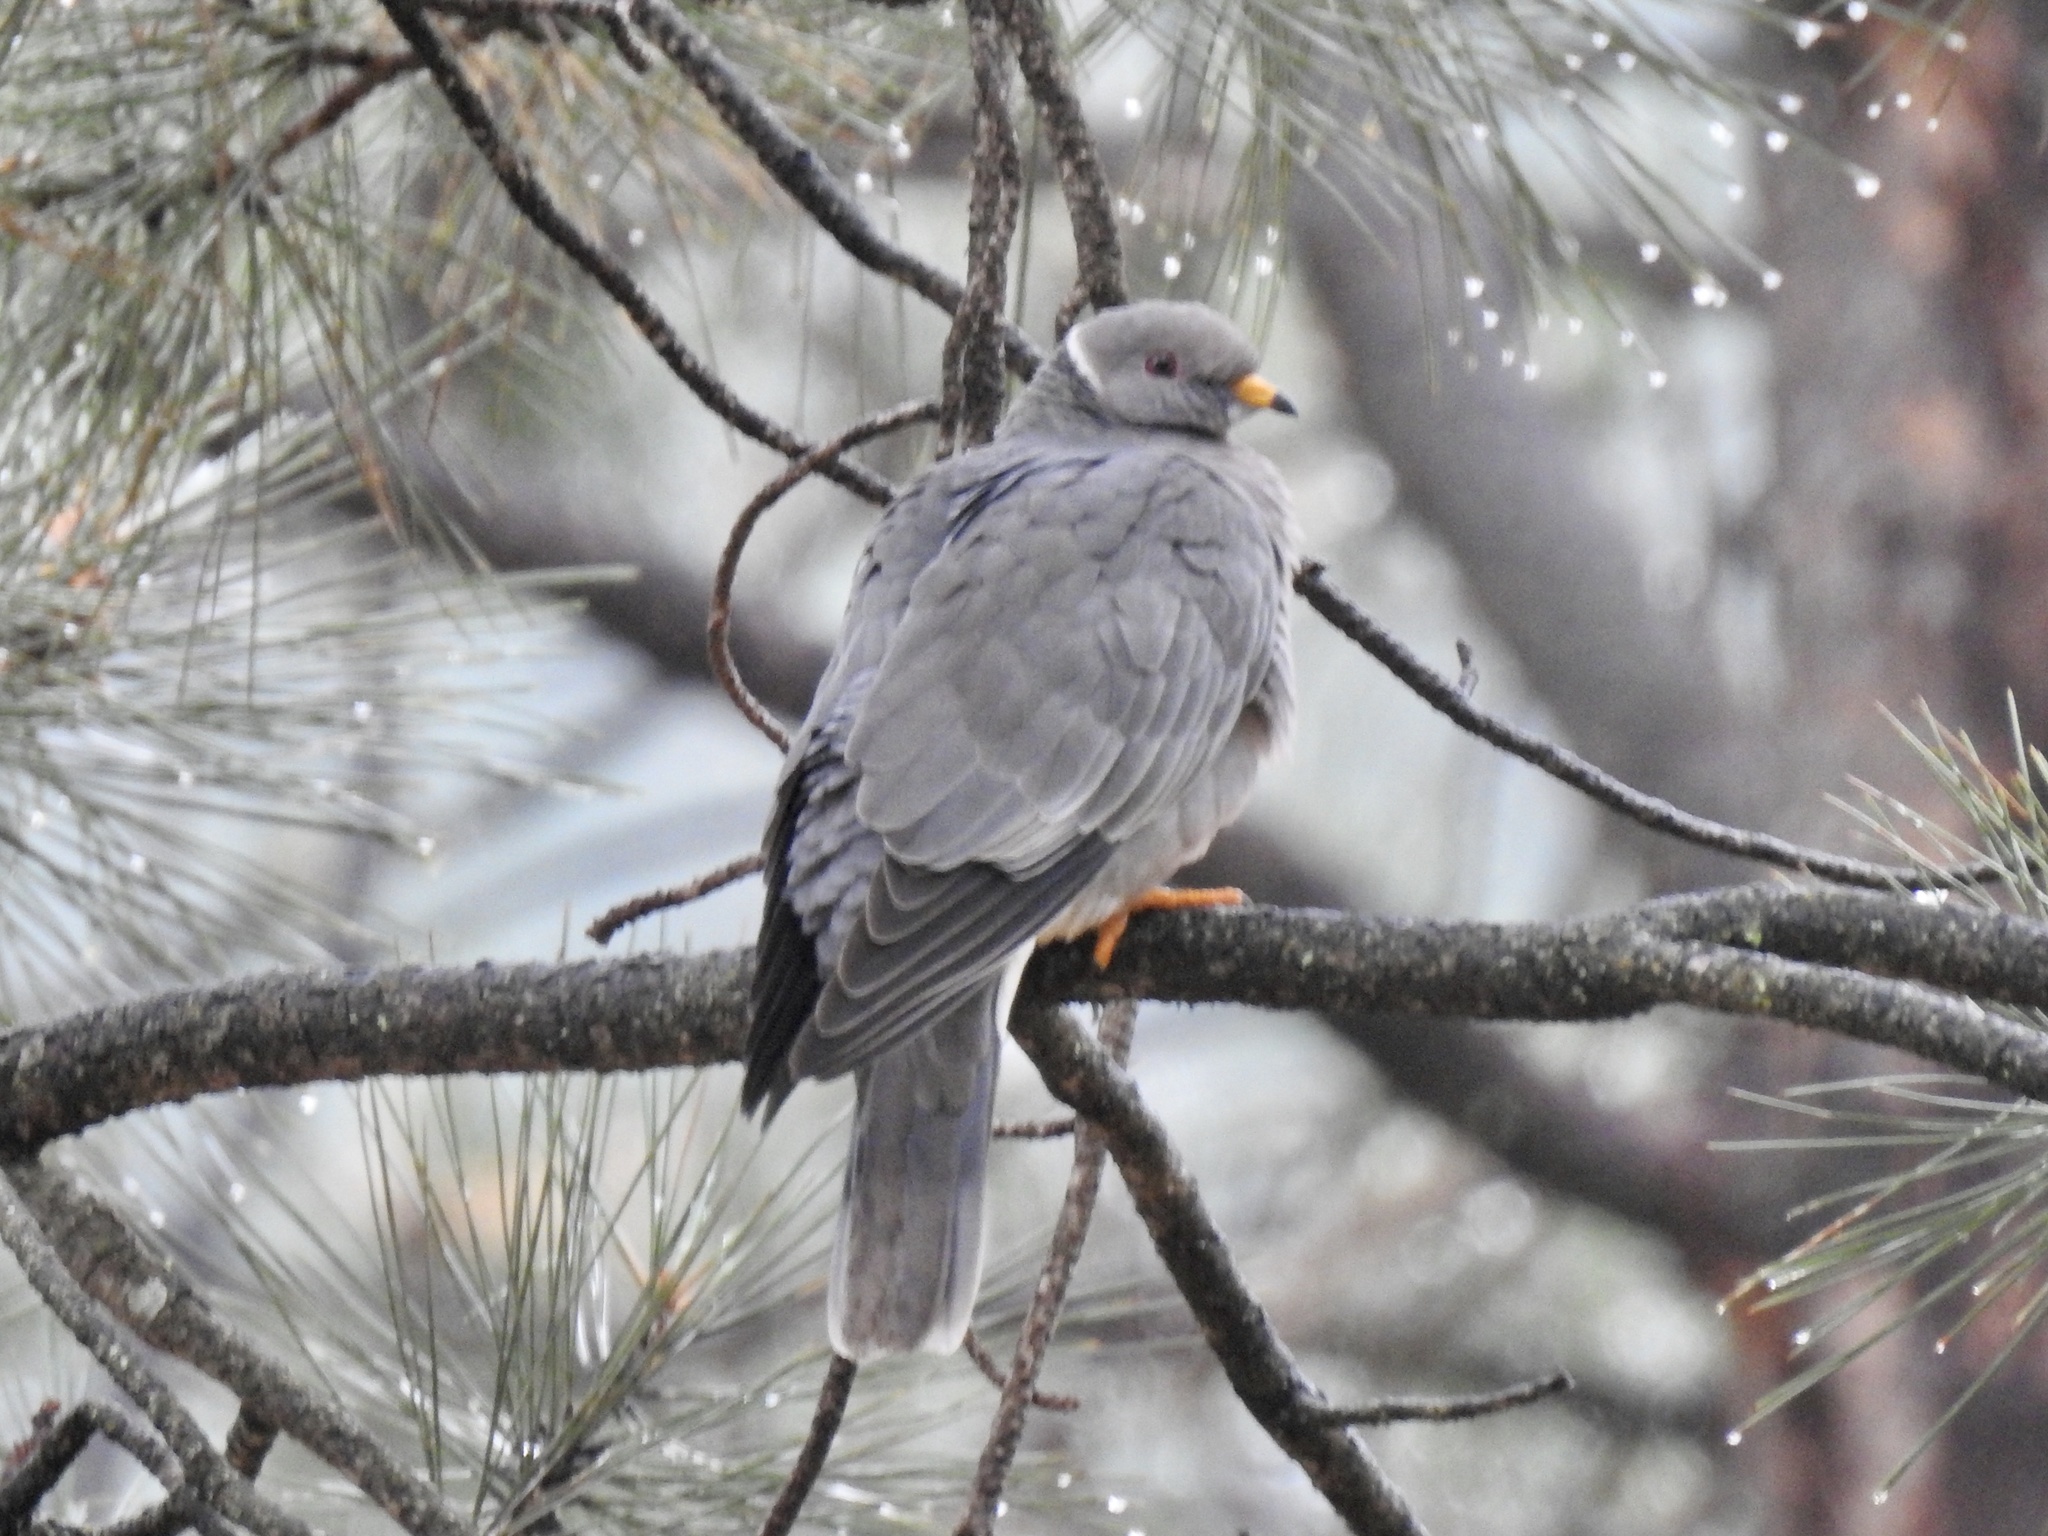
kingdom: Animalia
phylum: Chordata
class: Aves
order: Columbiformes
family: Columbidae
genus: Patagioenas
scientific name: Patagioenas fasciata
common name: Band-tailed pigeon
